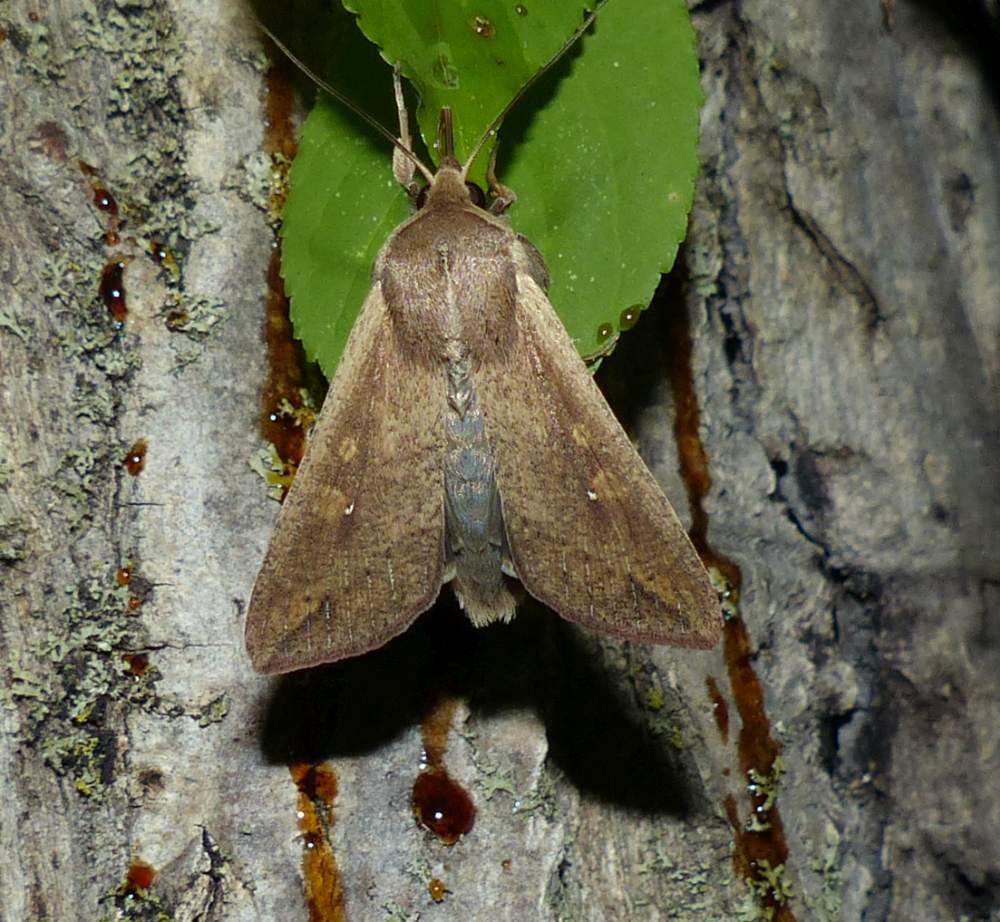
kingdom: Animalia
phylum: Arthropoda
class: Insecta
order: Lepidoptera
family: Noctuidae
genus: Mythimna
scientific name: Mythimna unipuncta
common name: White-speck
